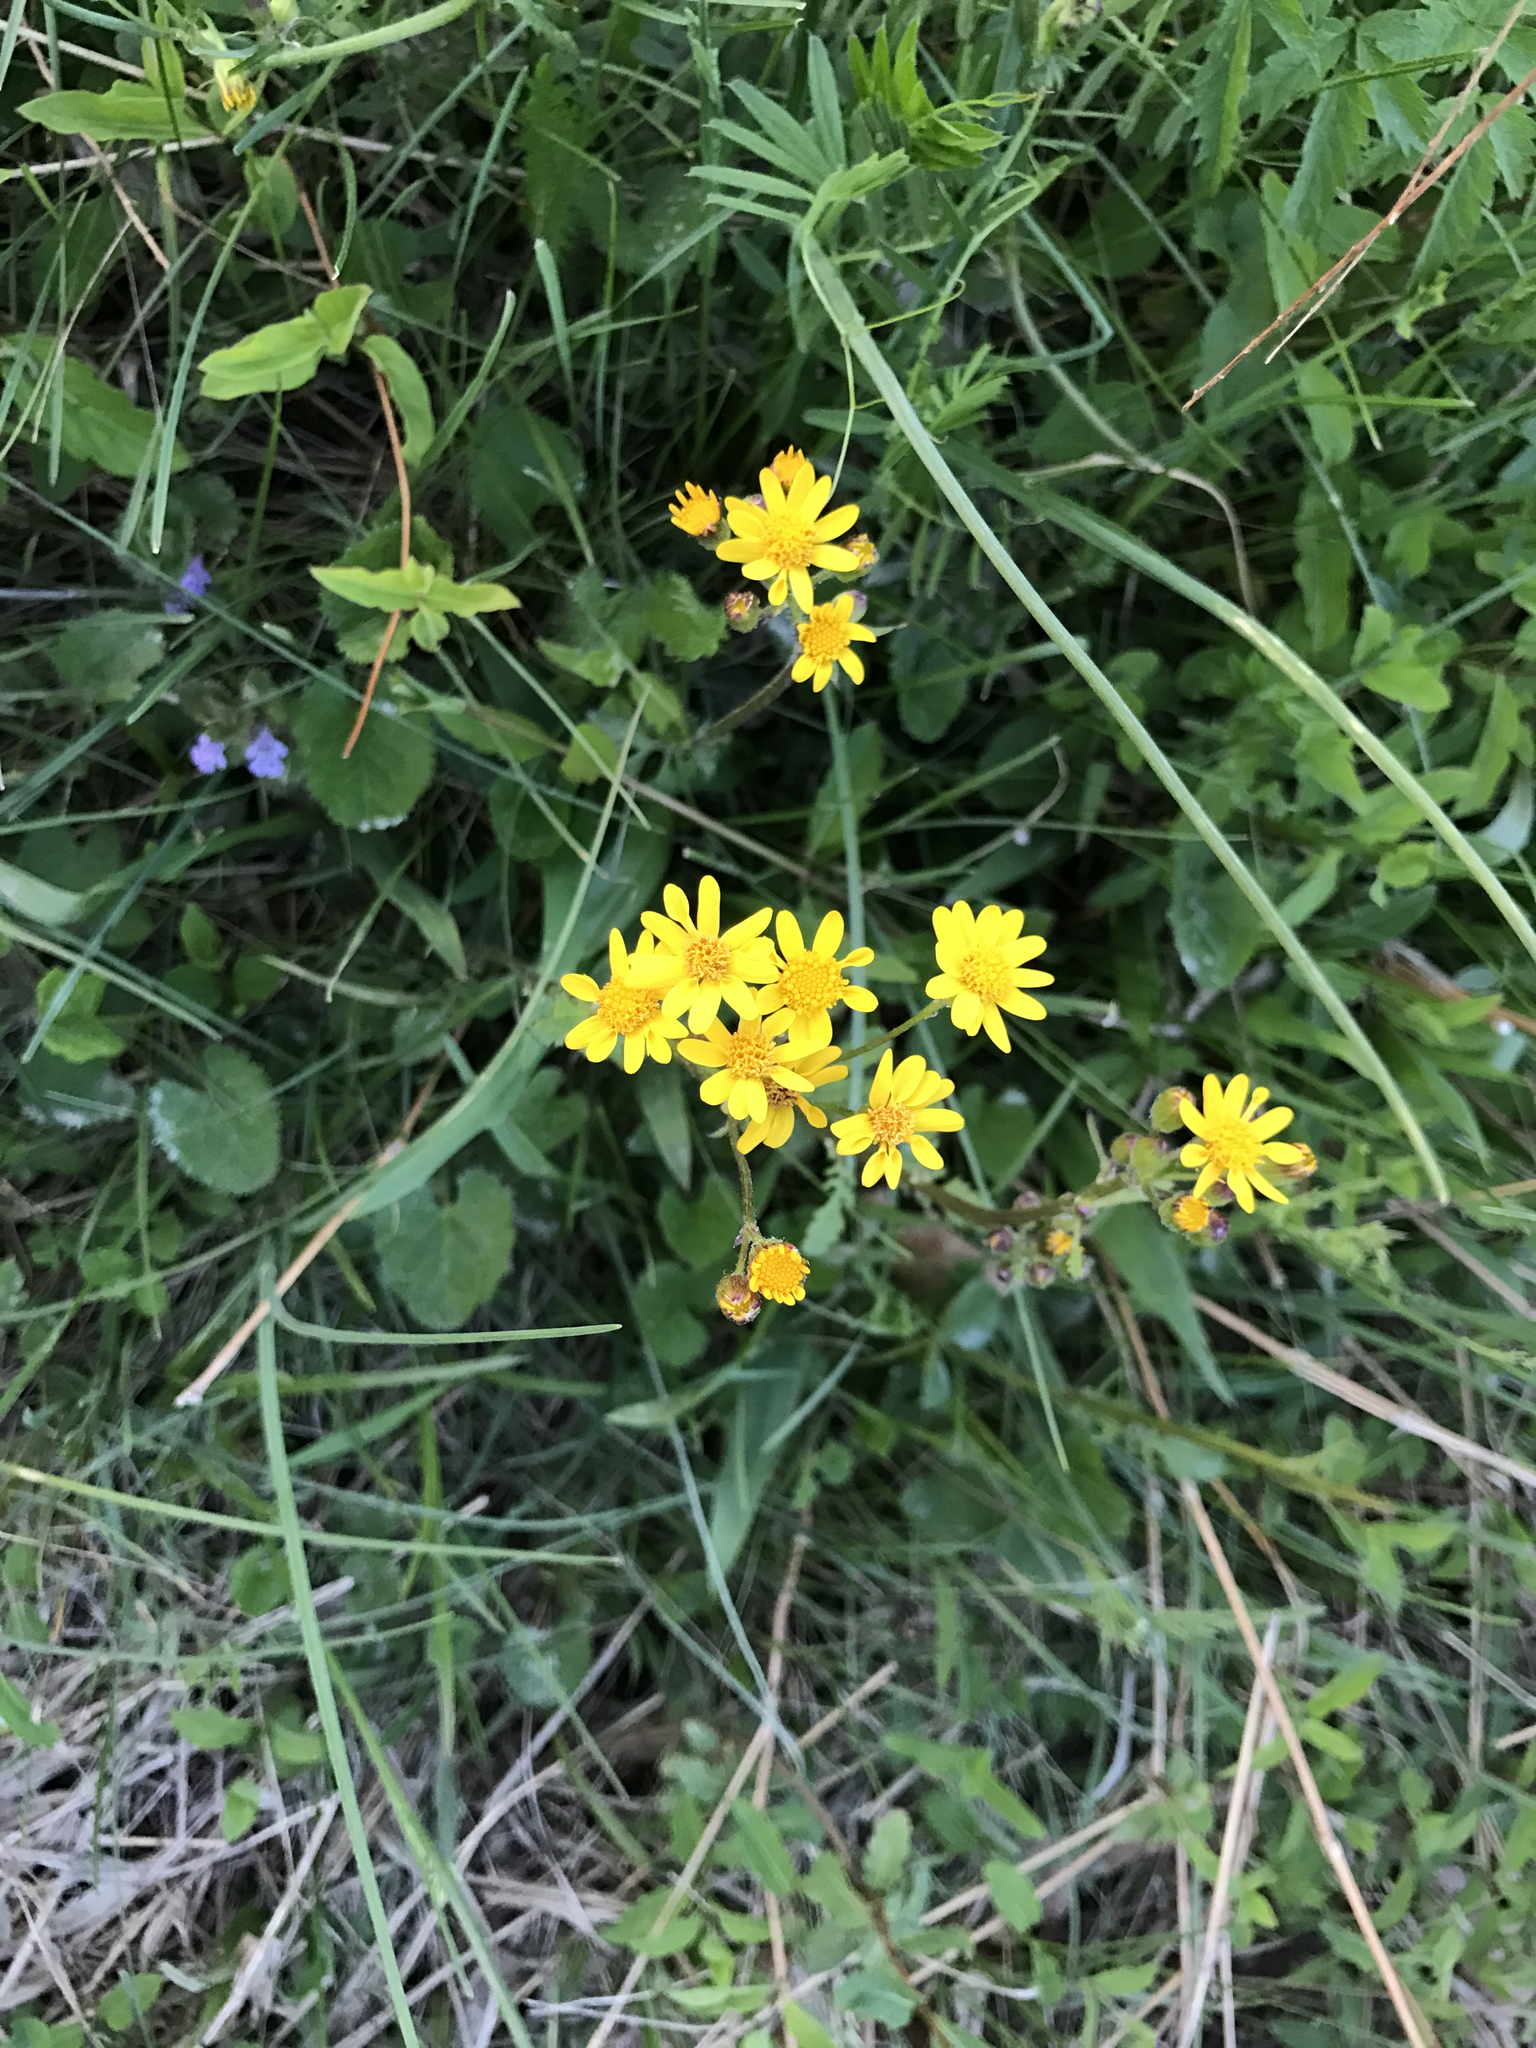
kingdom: Plantae
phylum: Tracheophyta
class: Magnoliopsida
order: Asterales
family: Asteraceae
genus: Packera
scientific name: Packera aurea
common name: Golden groundsel
